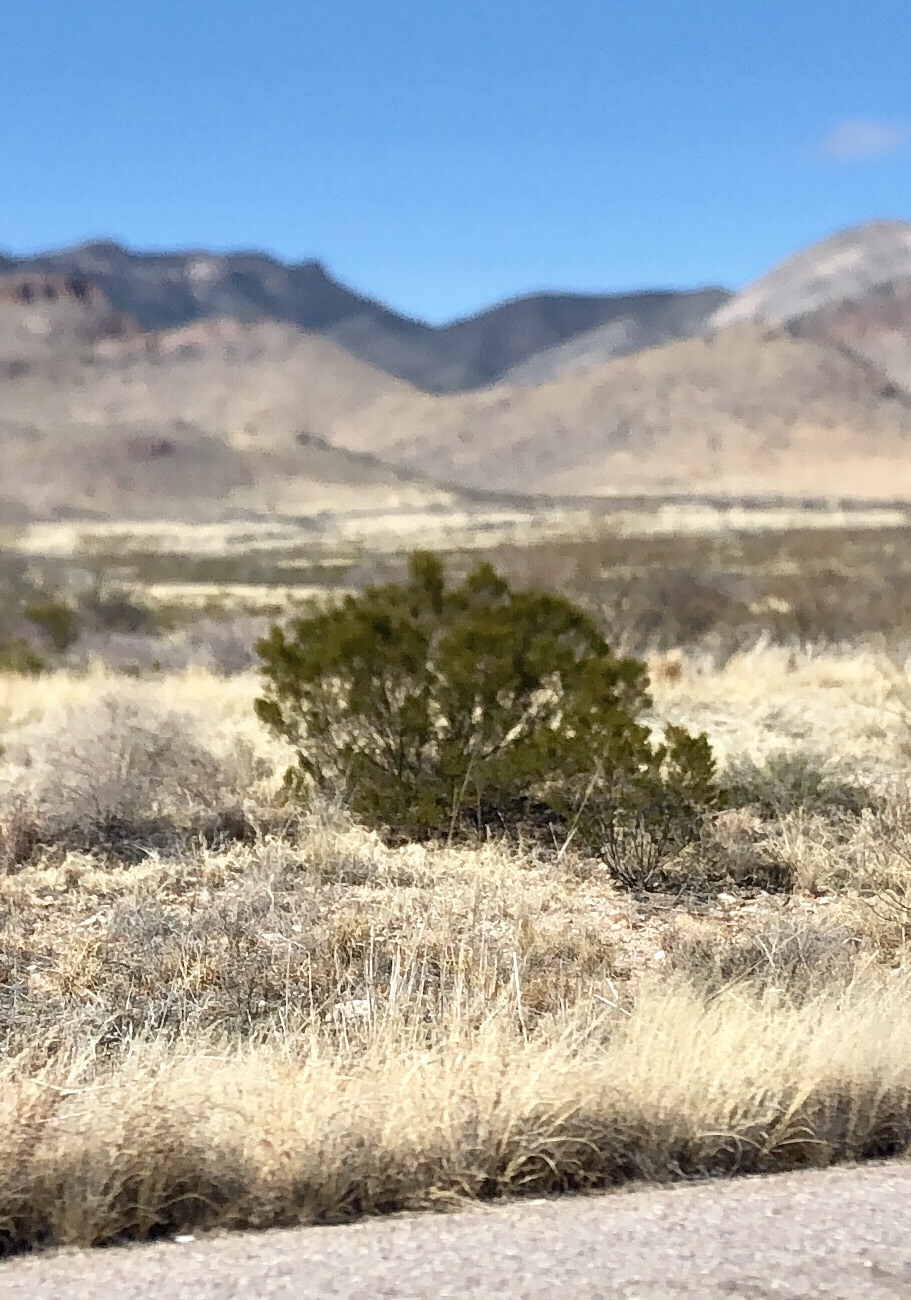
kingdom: Plantae
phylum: Tracheophyta
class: Magnoliopsida
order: Zygophyllales
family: Zygophyllaceae
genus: Larrea
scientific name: Larrea tridentata
